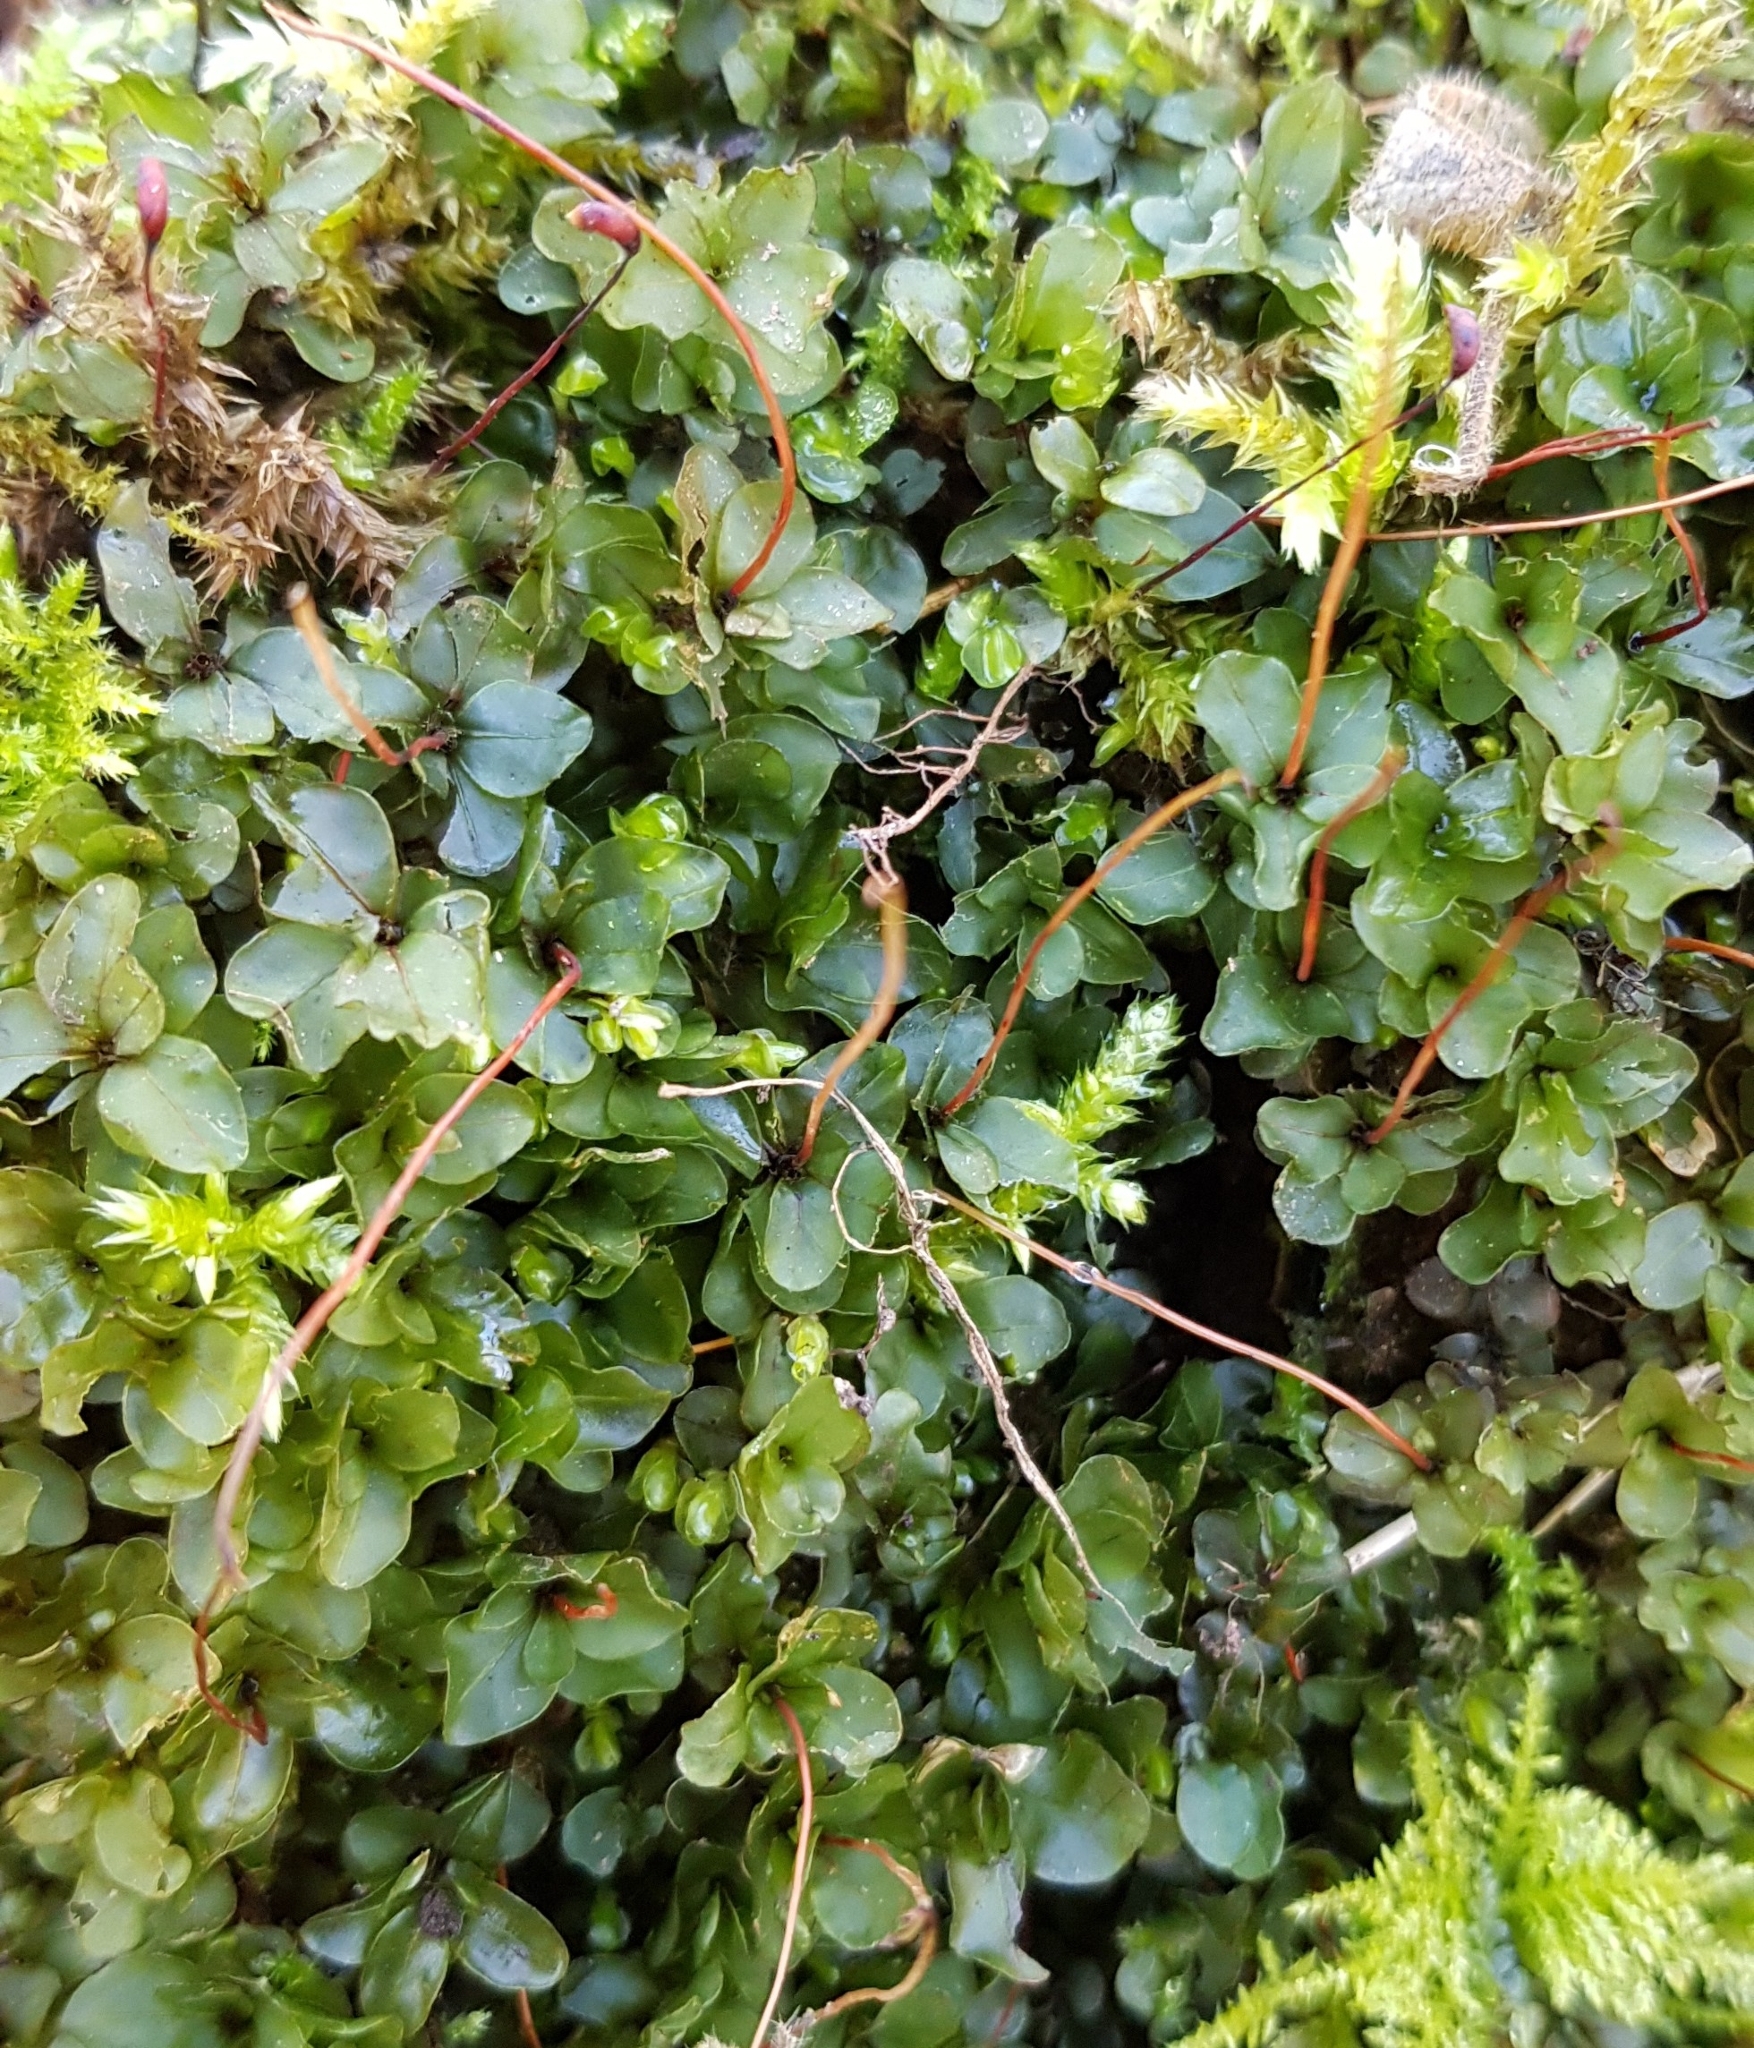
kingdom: Plantae
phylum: Bryophyta
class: Bryopsida
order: Bryales
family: Mniaceae
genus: Rhizomnium
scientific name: Rhizomnium punctatum
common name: Dotted leafy moss
